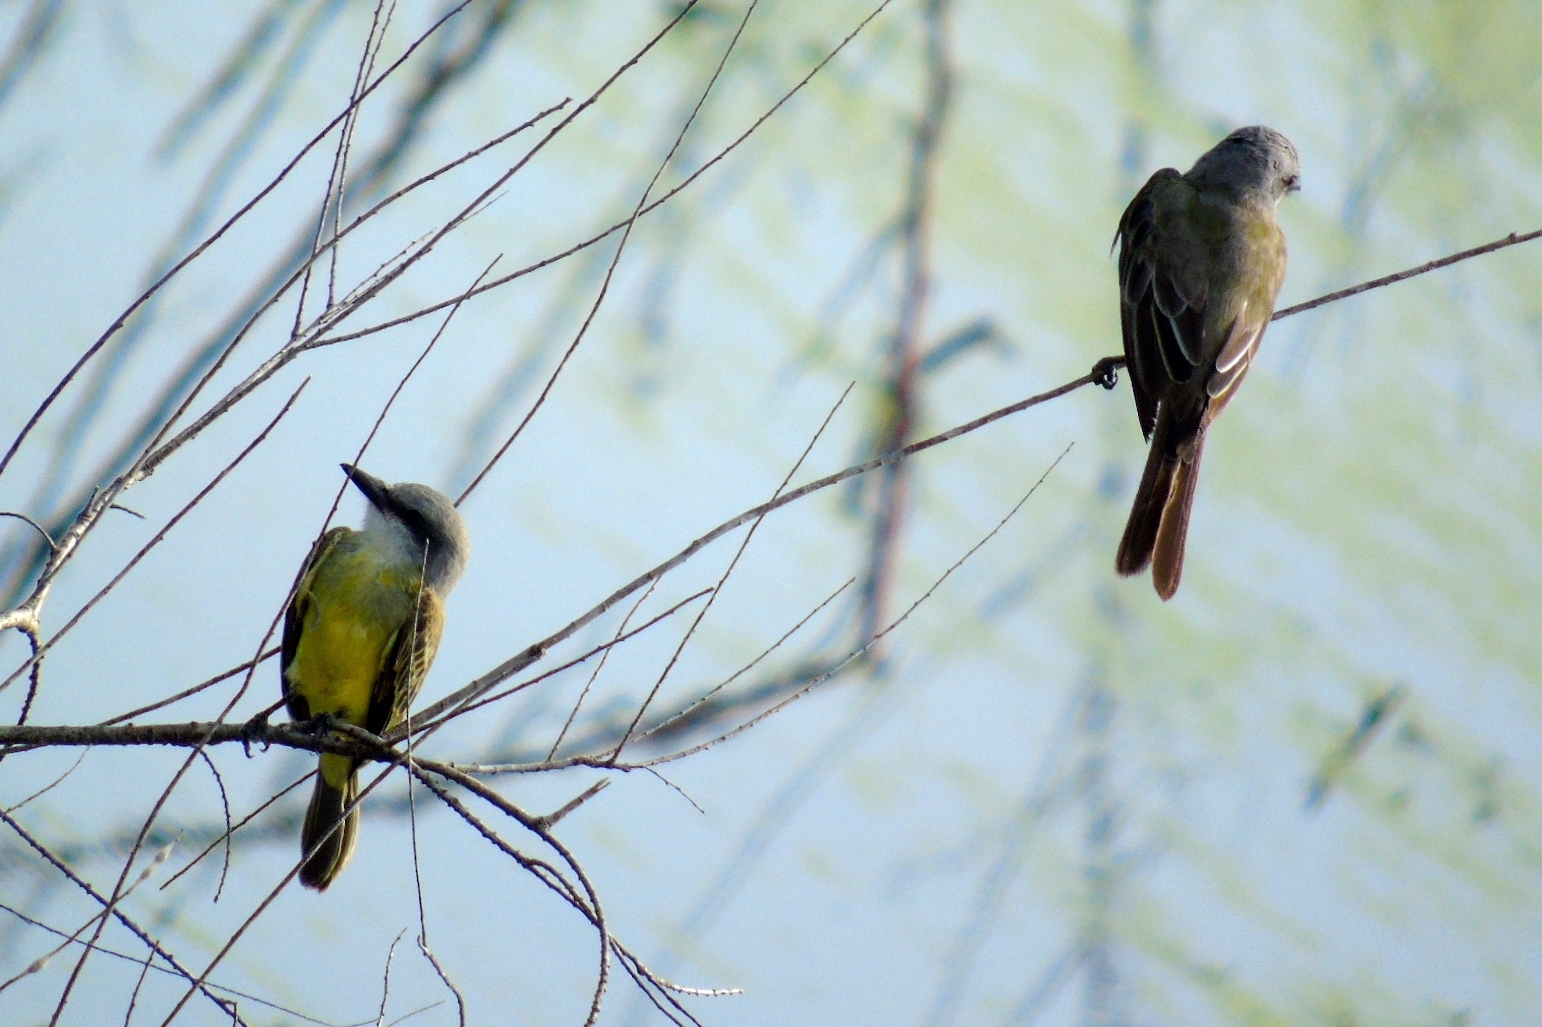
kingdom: Animalia
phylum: Chordata
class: Aves
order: Passeriformes
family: Tyrannidae
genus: Tyrannus
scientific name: Tyrannus melancholicus
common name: Tropical kingbird
